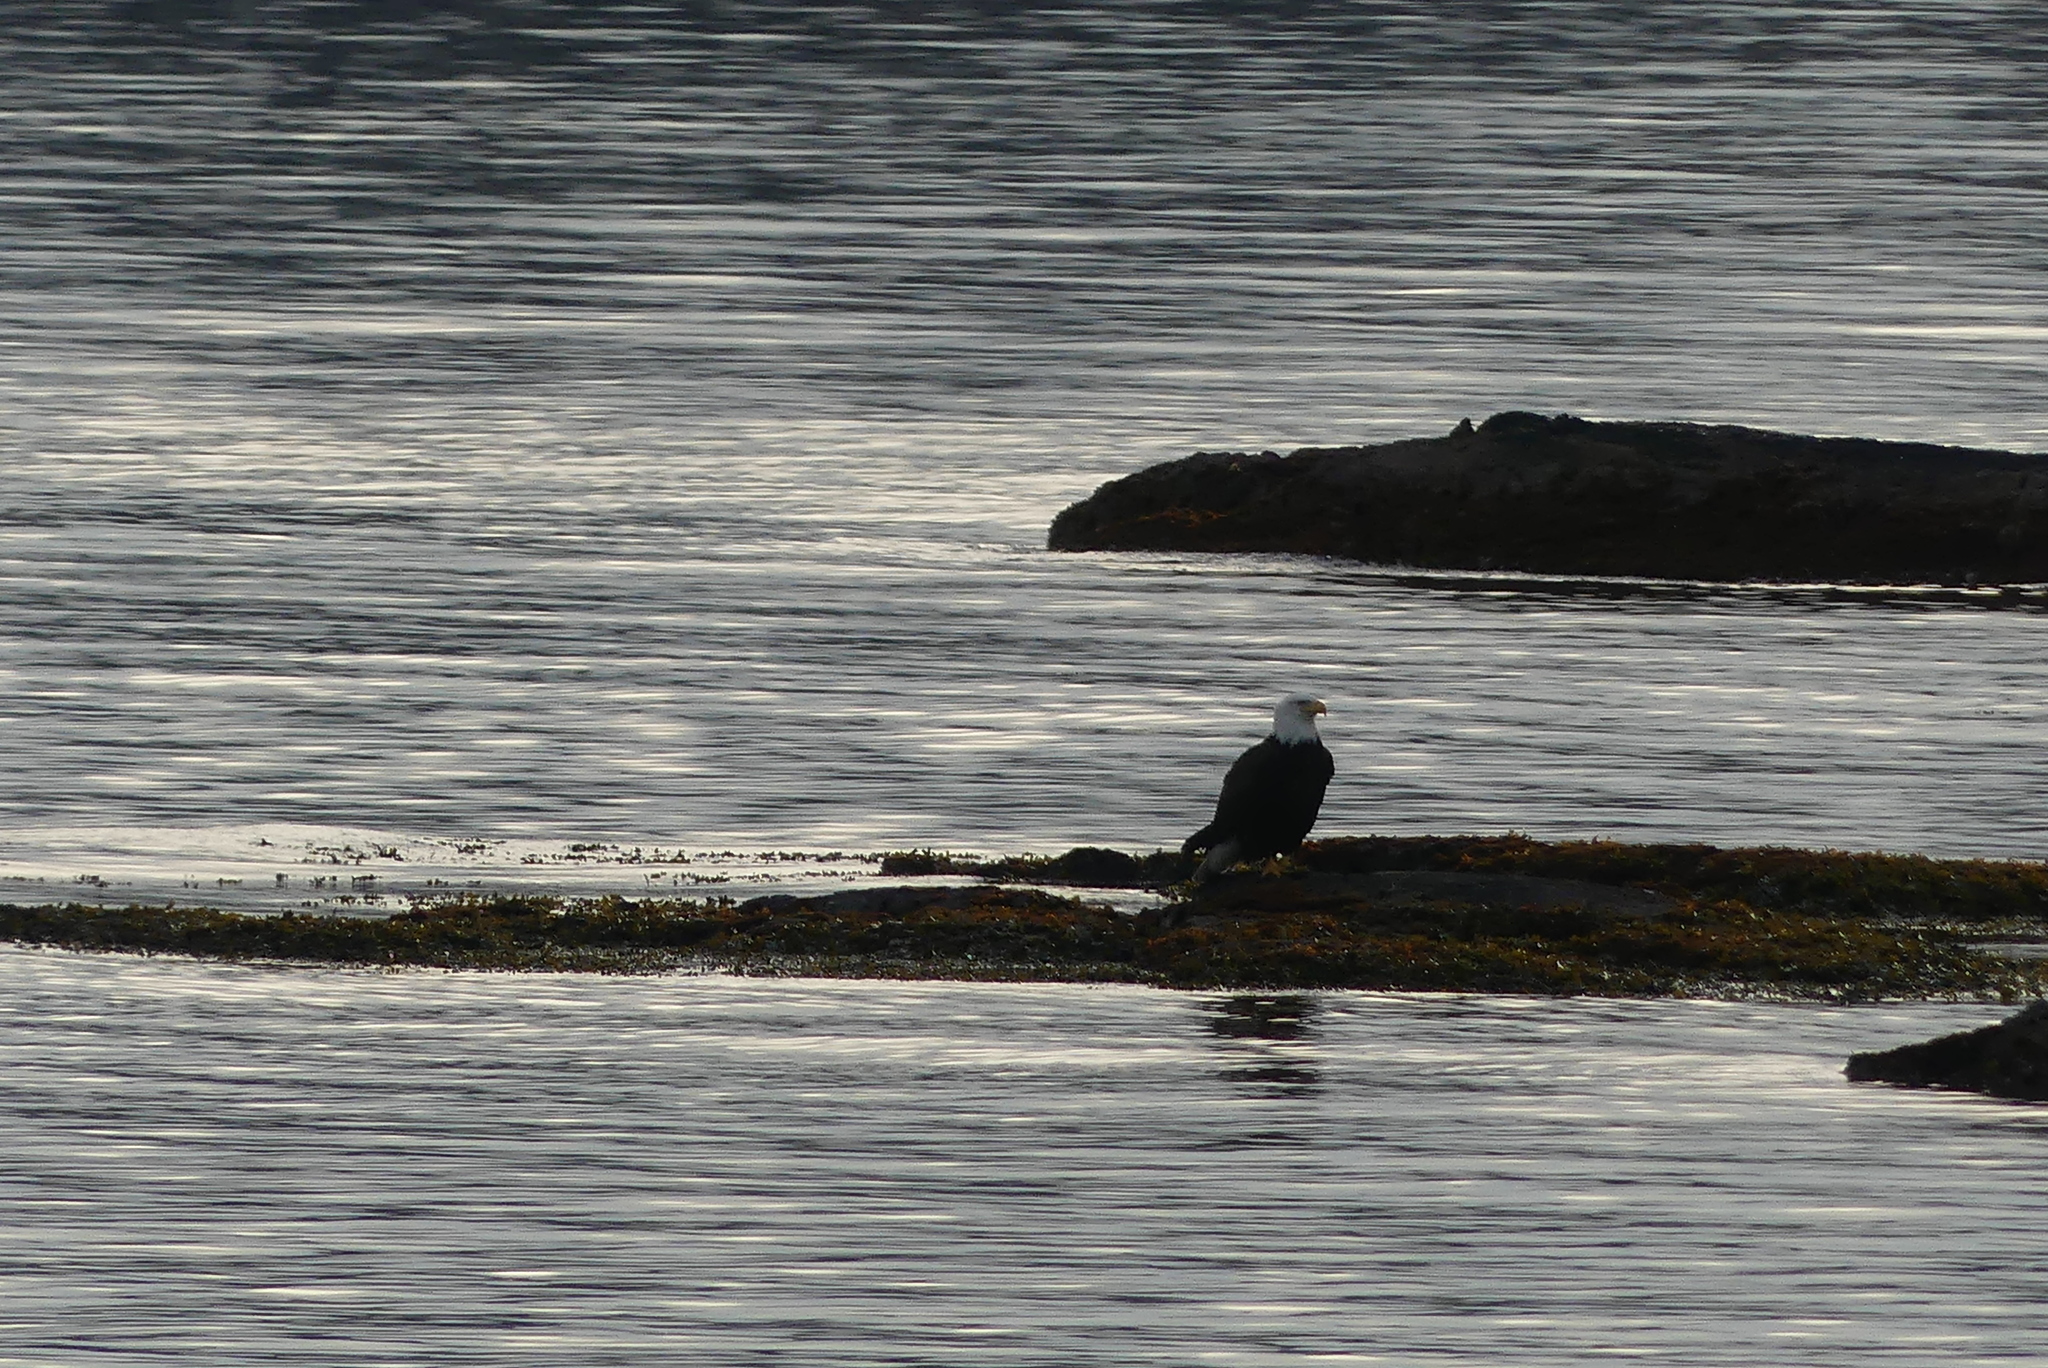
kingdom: Animalia
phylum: Chordata
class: Aves
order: Accipitriformes
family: Accipitridae
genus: Haliaeetus
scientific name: Haliaeetus leucocephalus
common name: Bald eagle
